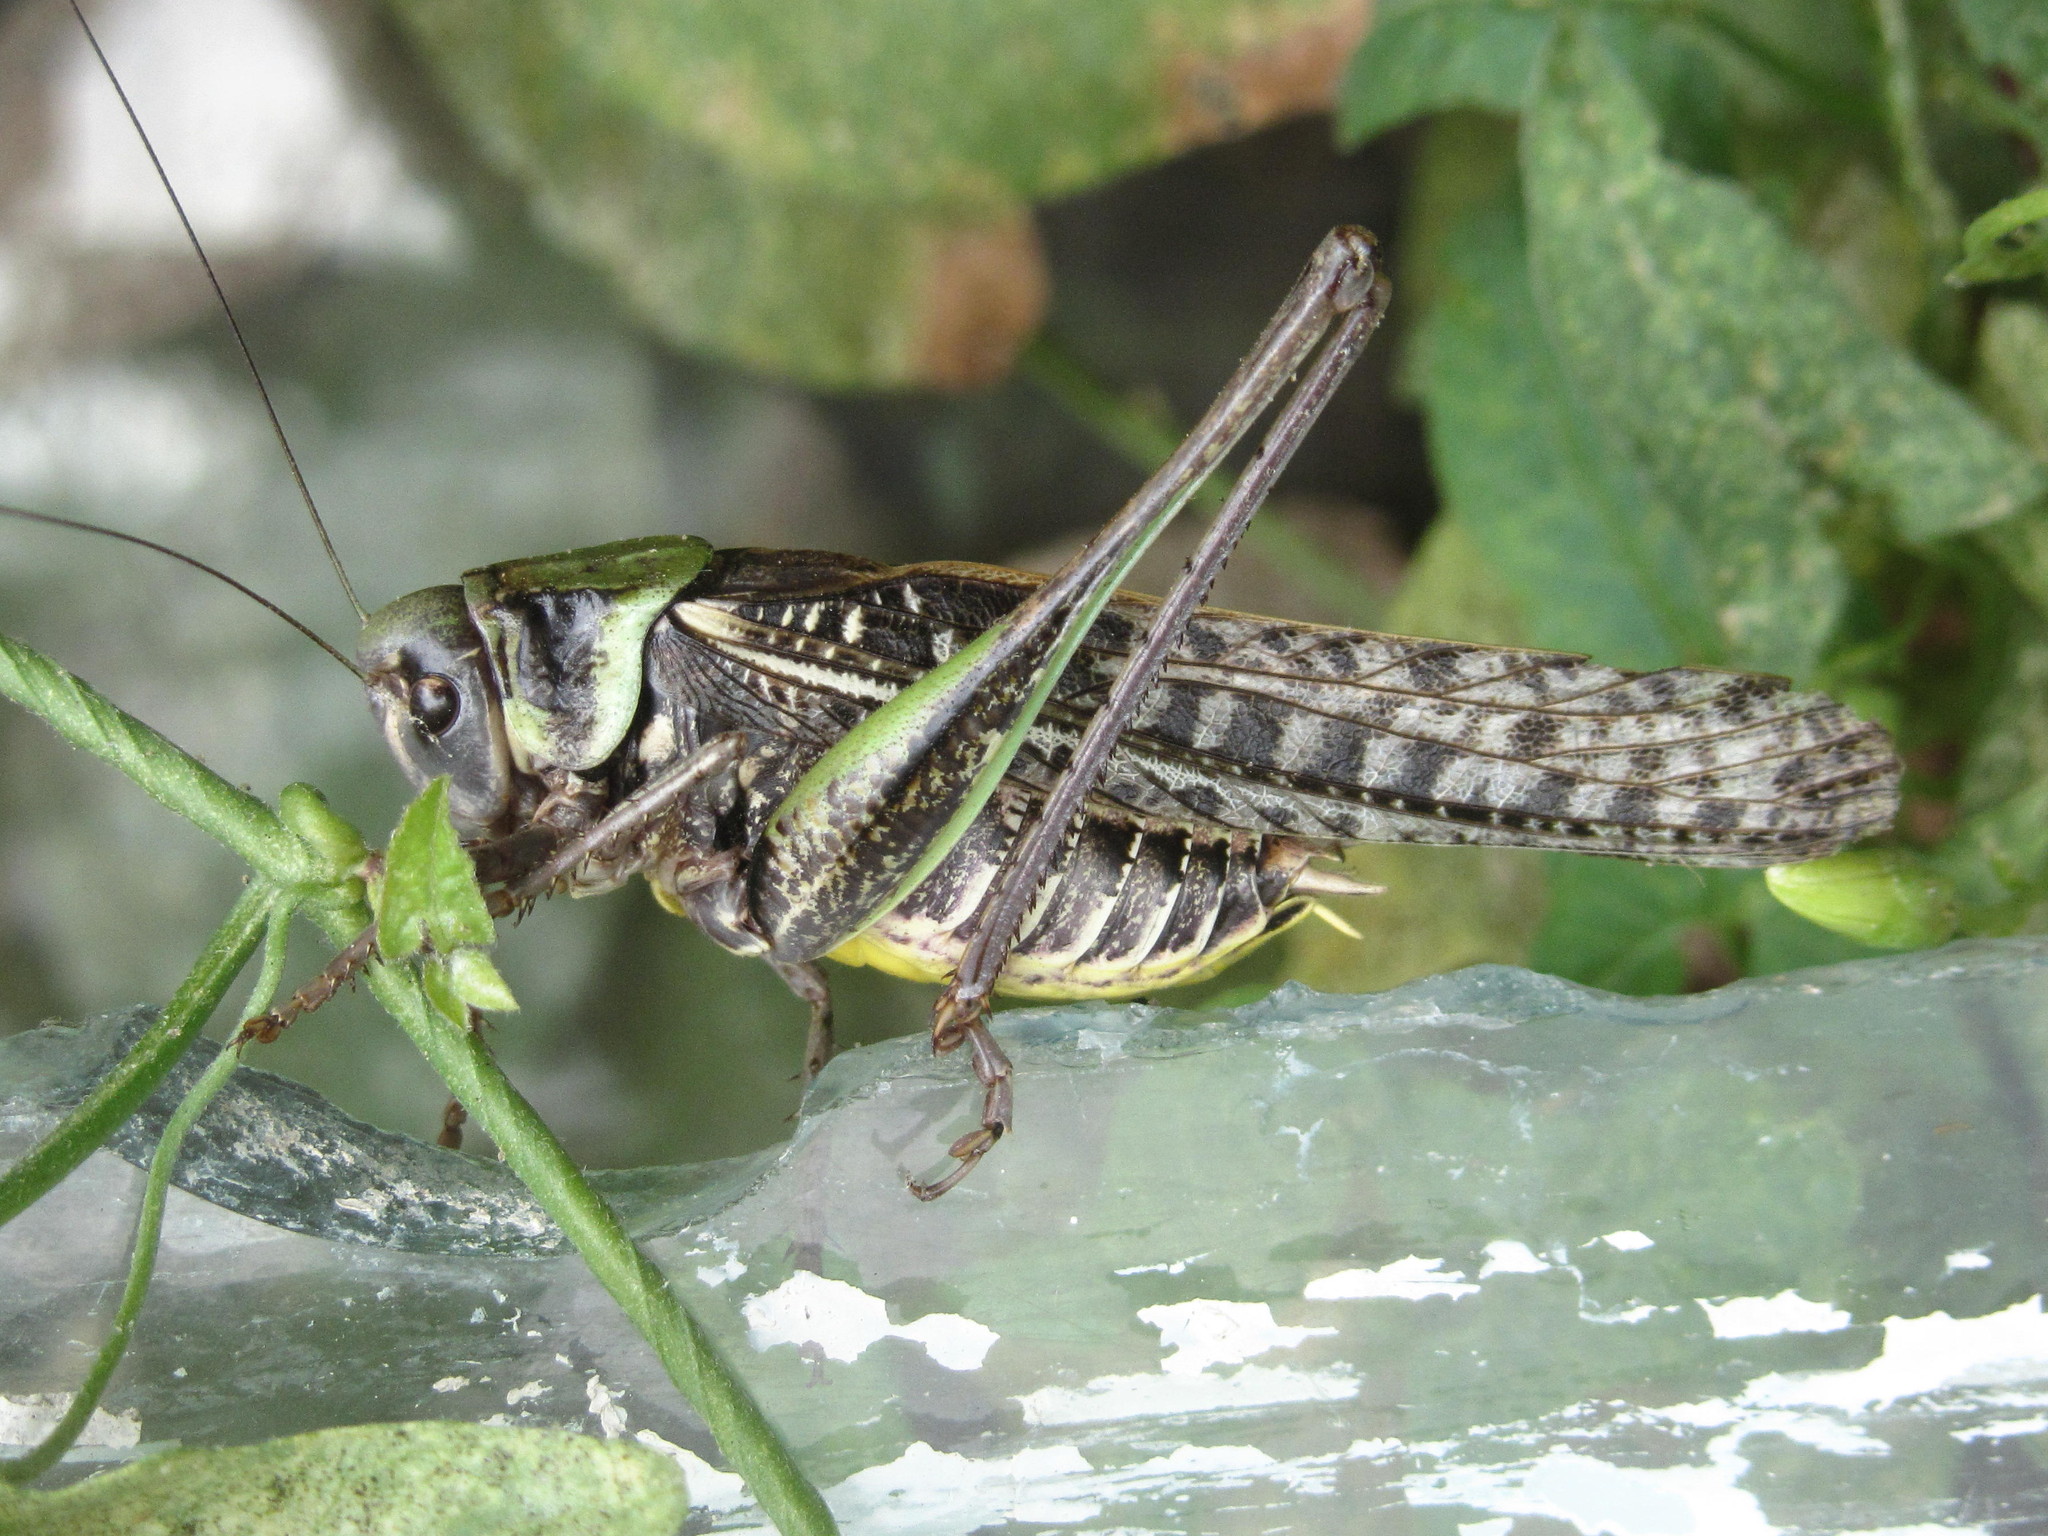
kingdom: Animalia
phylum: Arthropoda
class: Insecta
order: Orthoptera
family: Tettigoniidae
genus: Decticus
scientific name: Decticus verrucivorus
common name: Wart-biter
